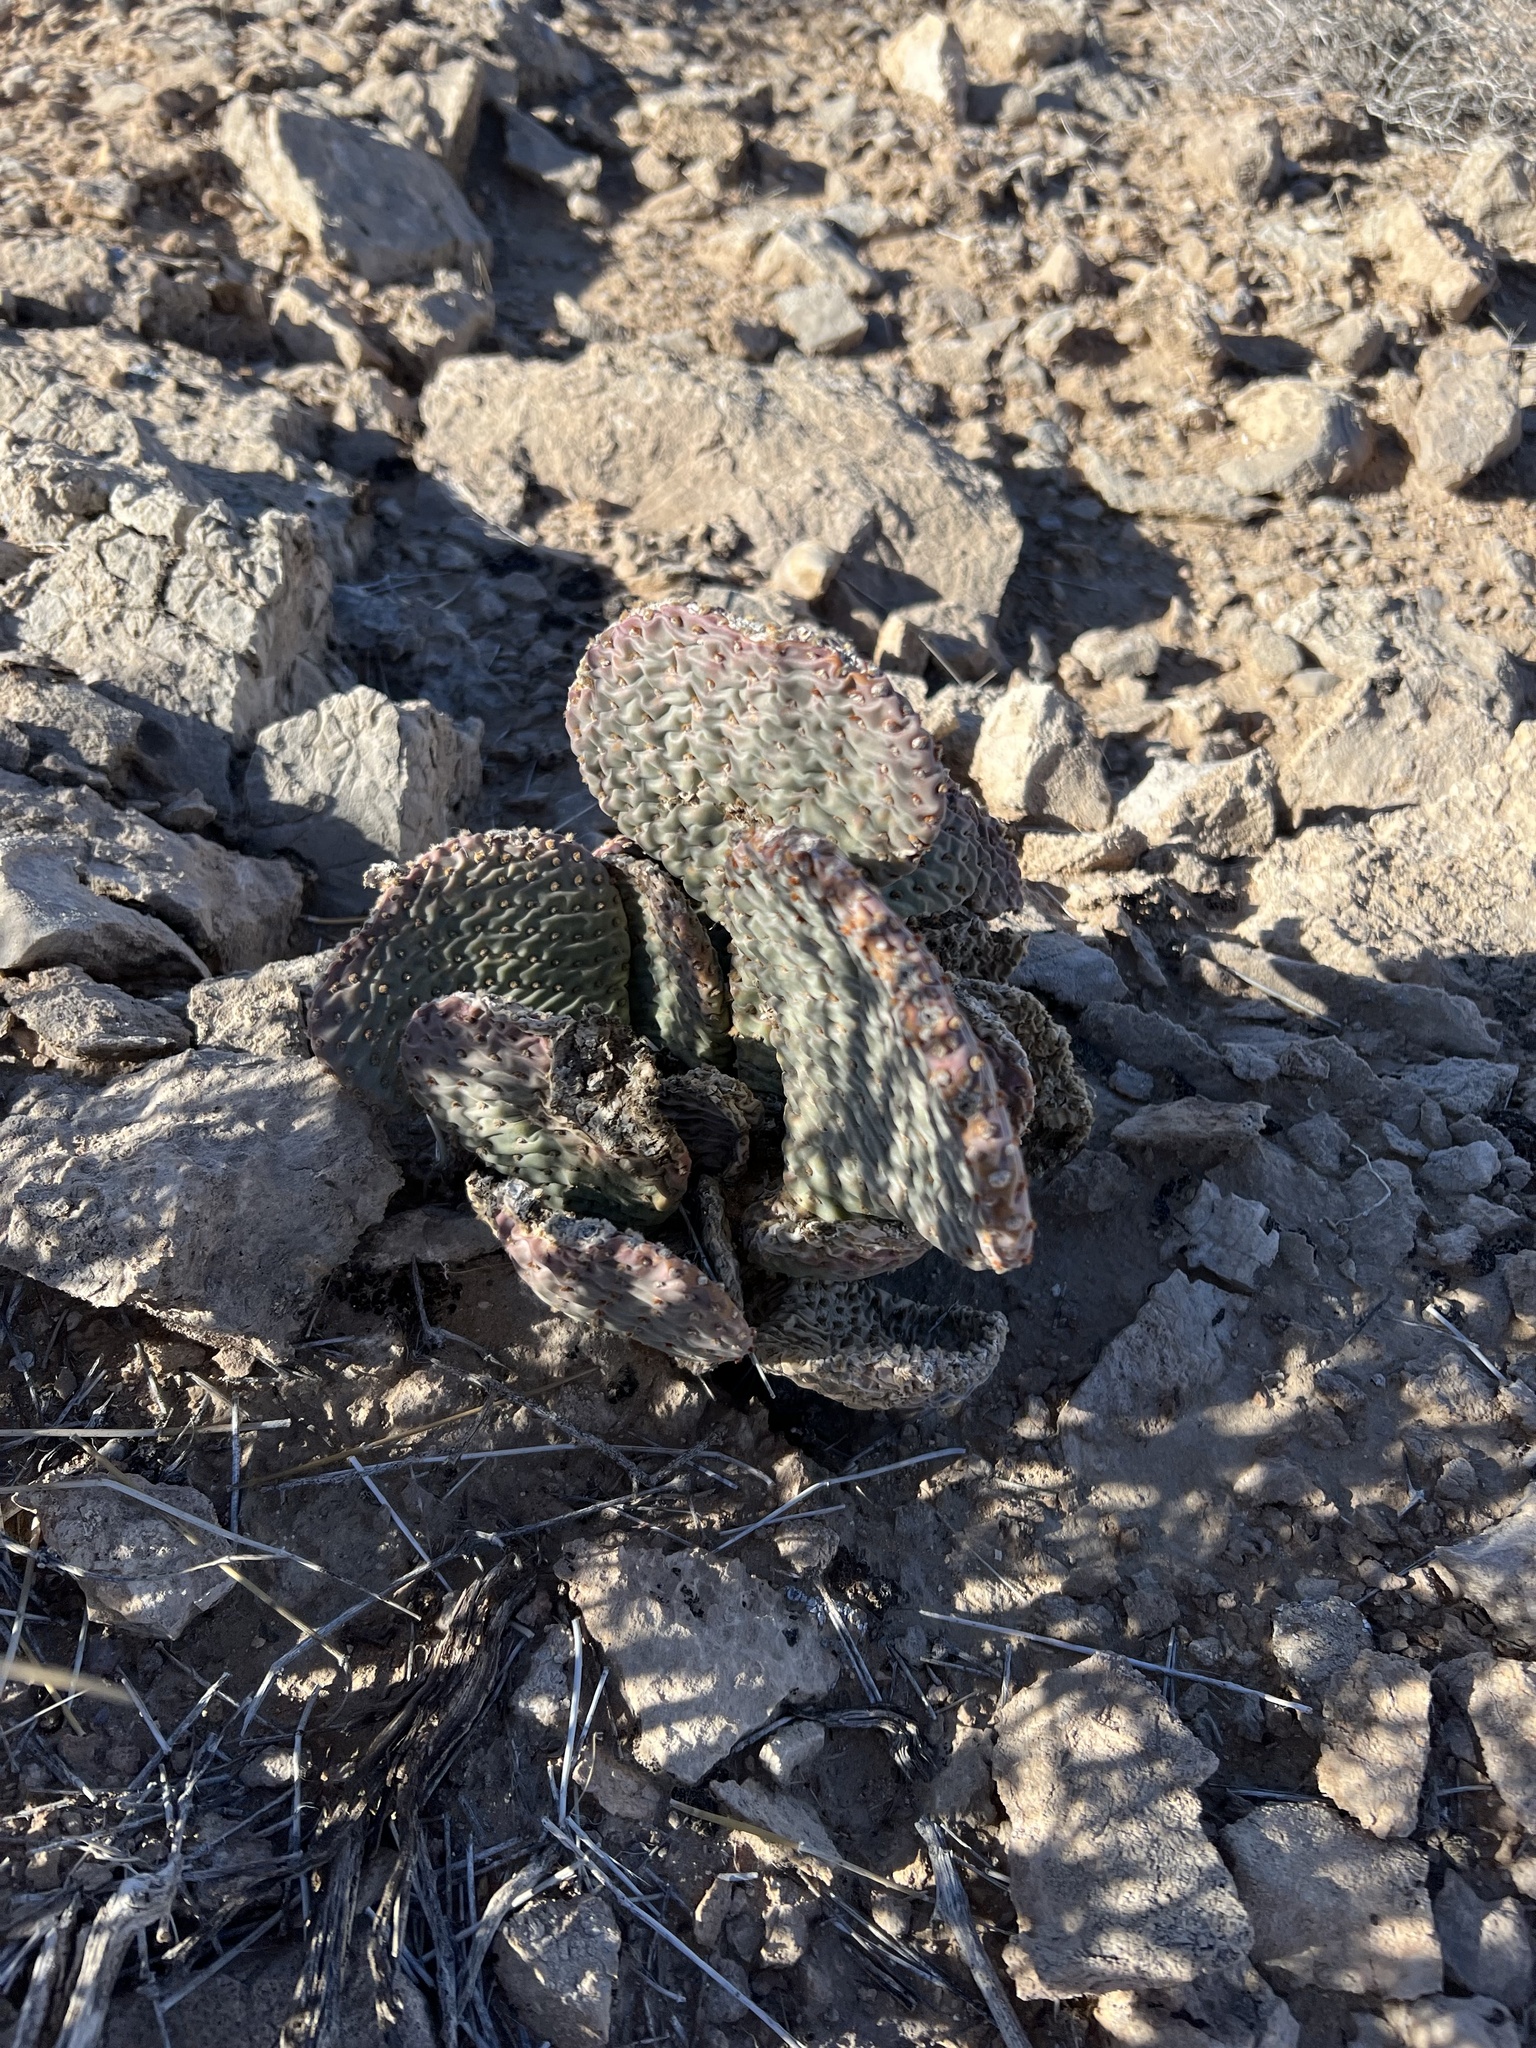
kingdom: Plantae
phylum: Tracheophyta
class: Magnoliopsida
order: Caryophyllales
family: Cactaceae
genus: Opuntia
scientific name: Opuntia basilaris
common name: Beavertail prickly-pear
